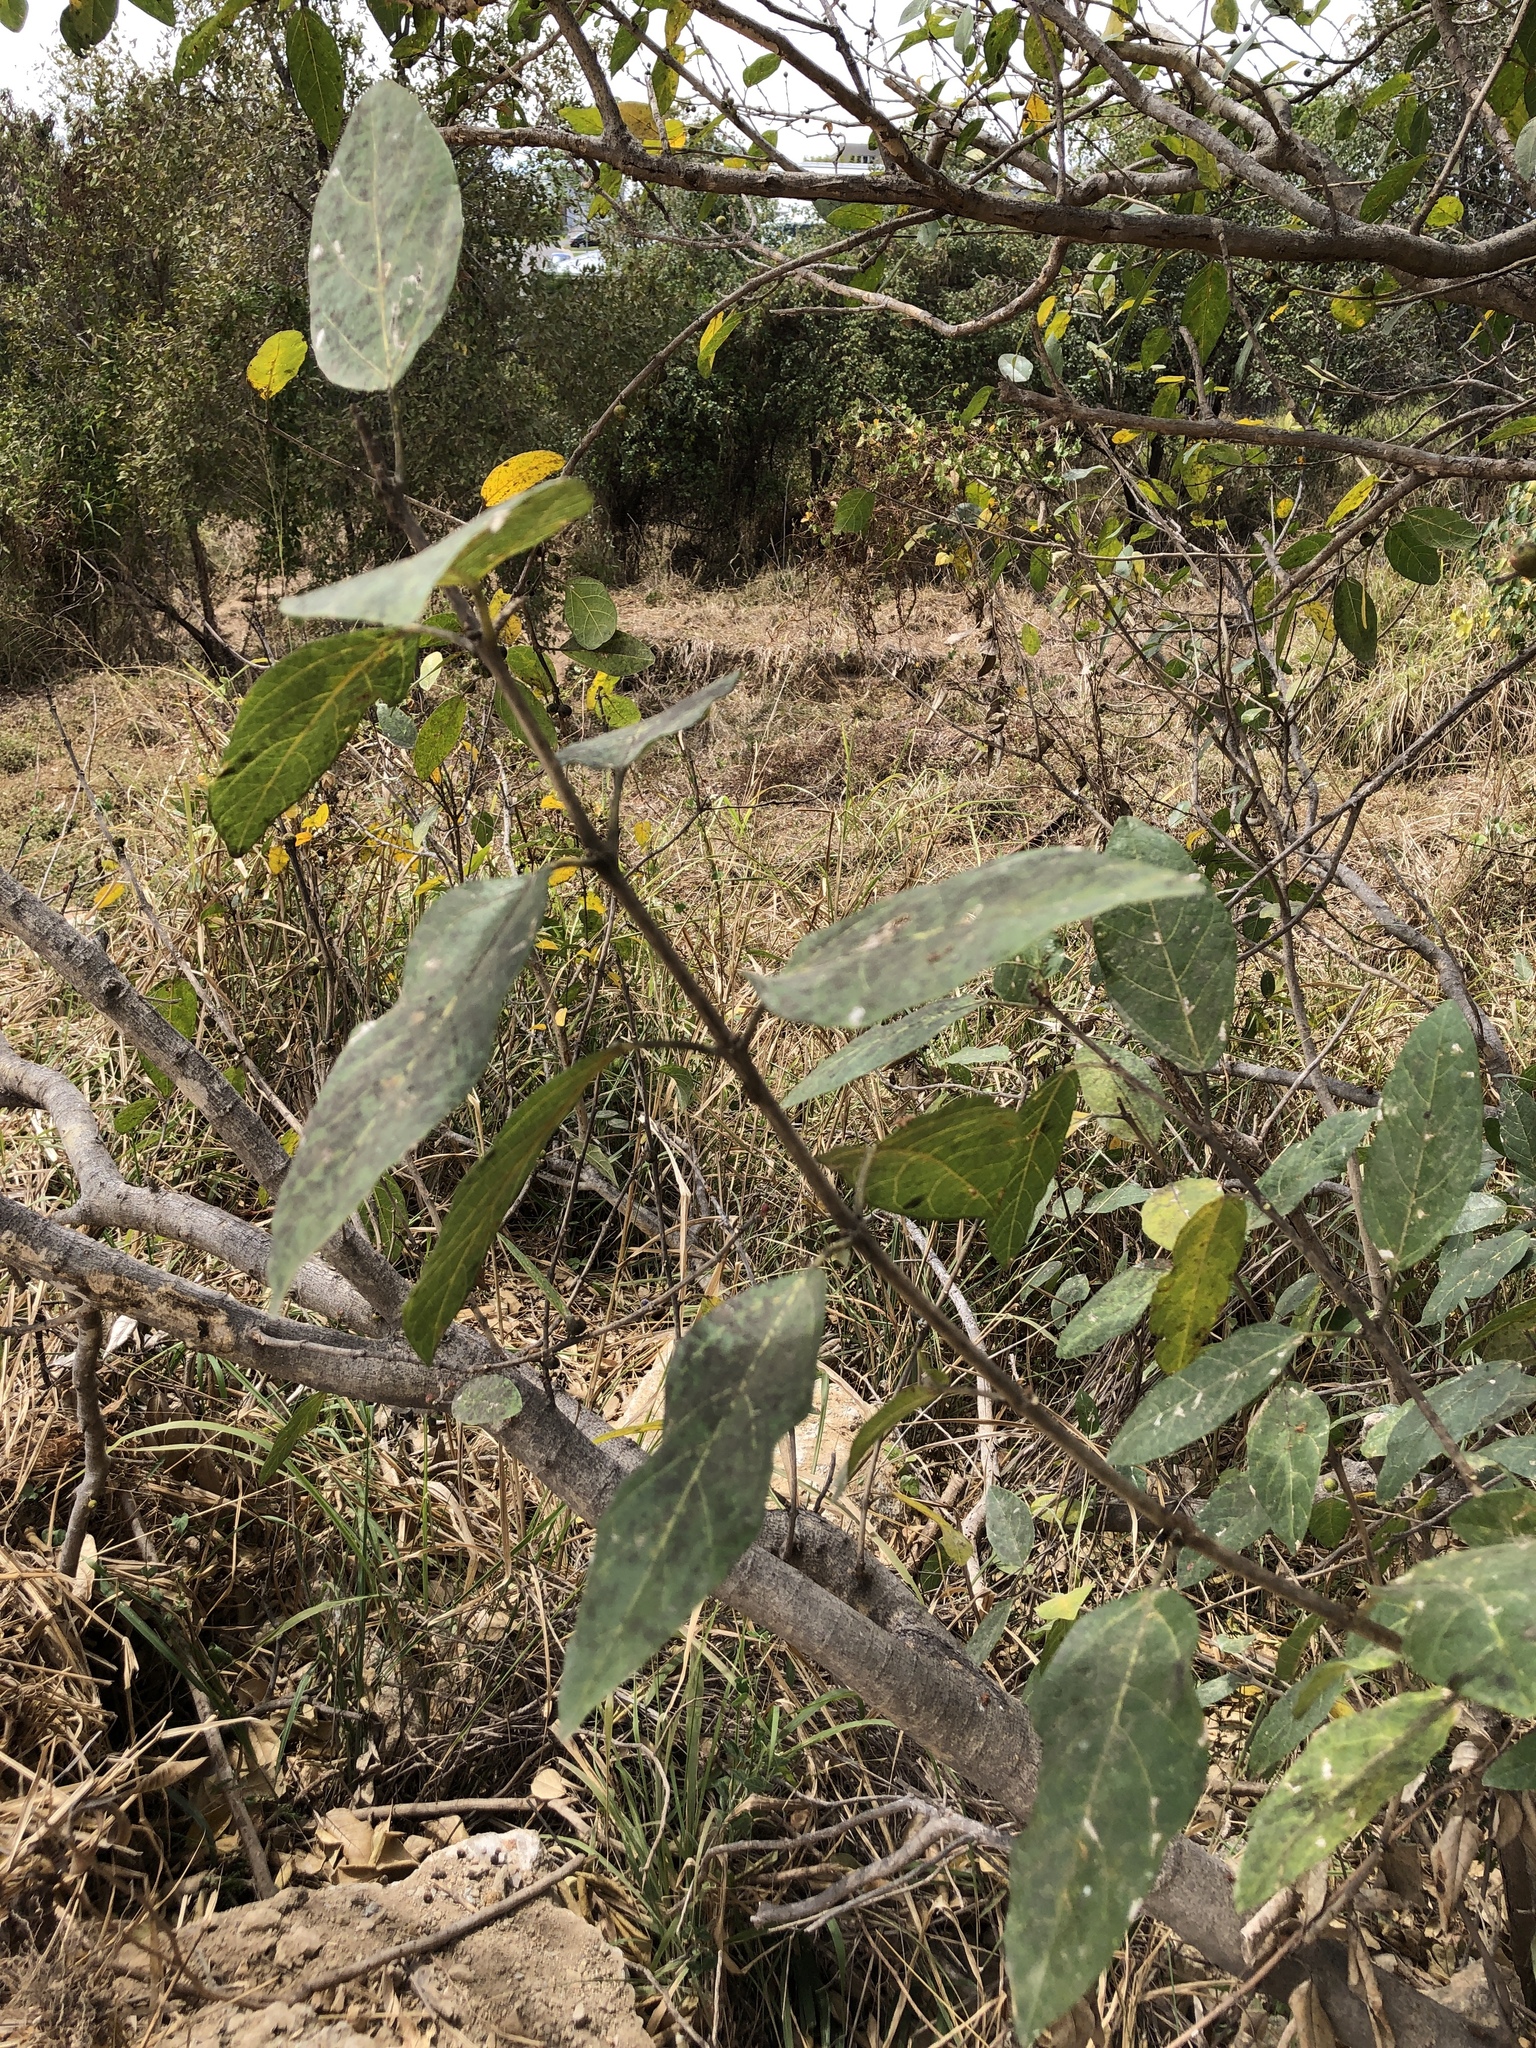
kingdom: Plantae
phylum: Tracheophyta
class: Magnoliopsida
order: Rosales
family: Moraceae
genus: Ficus
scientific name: Ficus opposita
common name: Figwood
